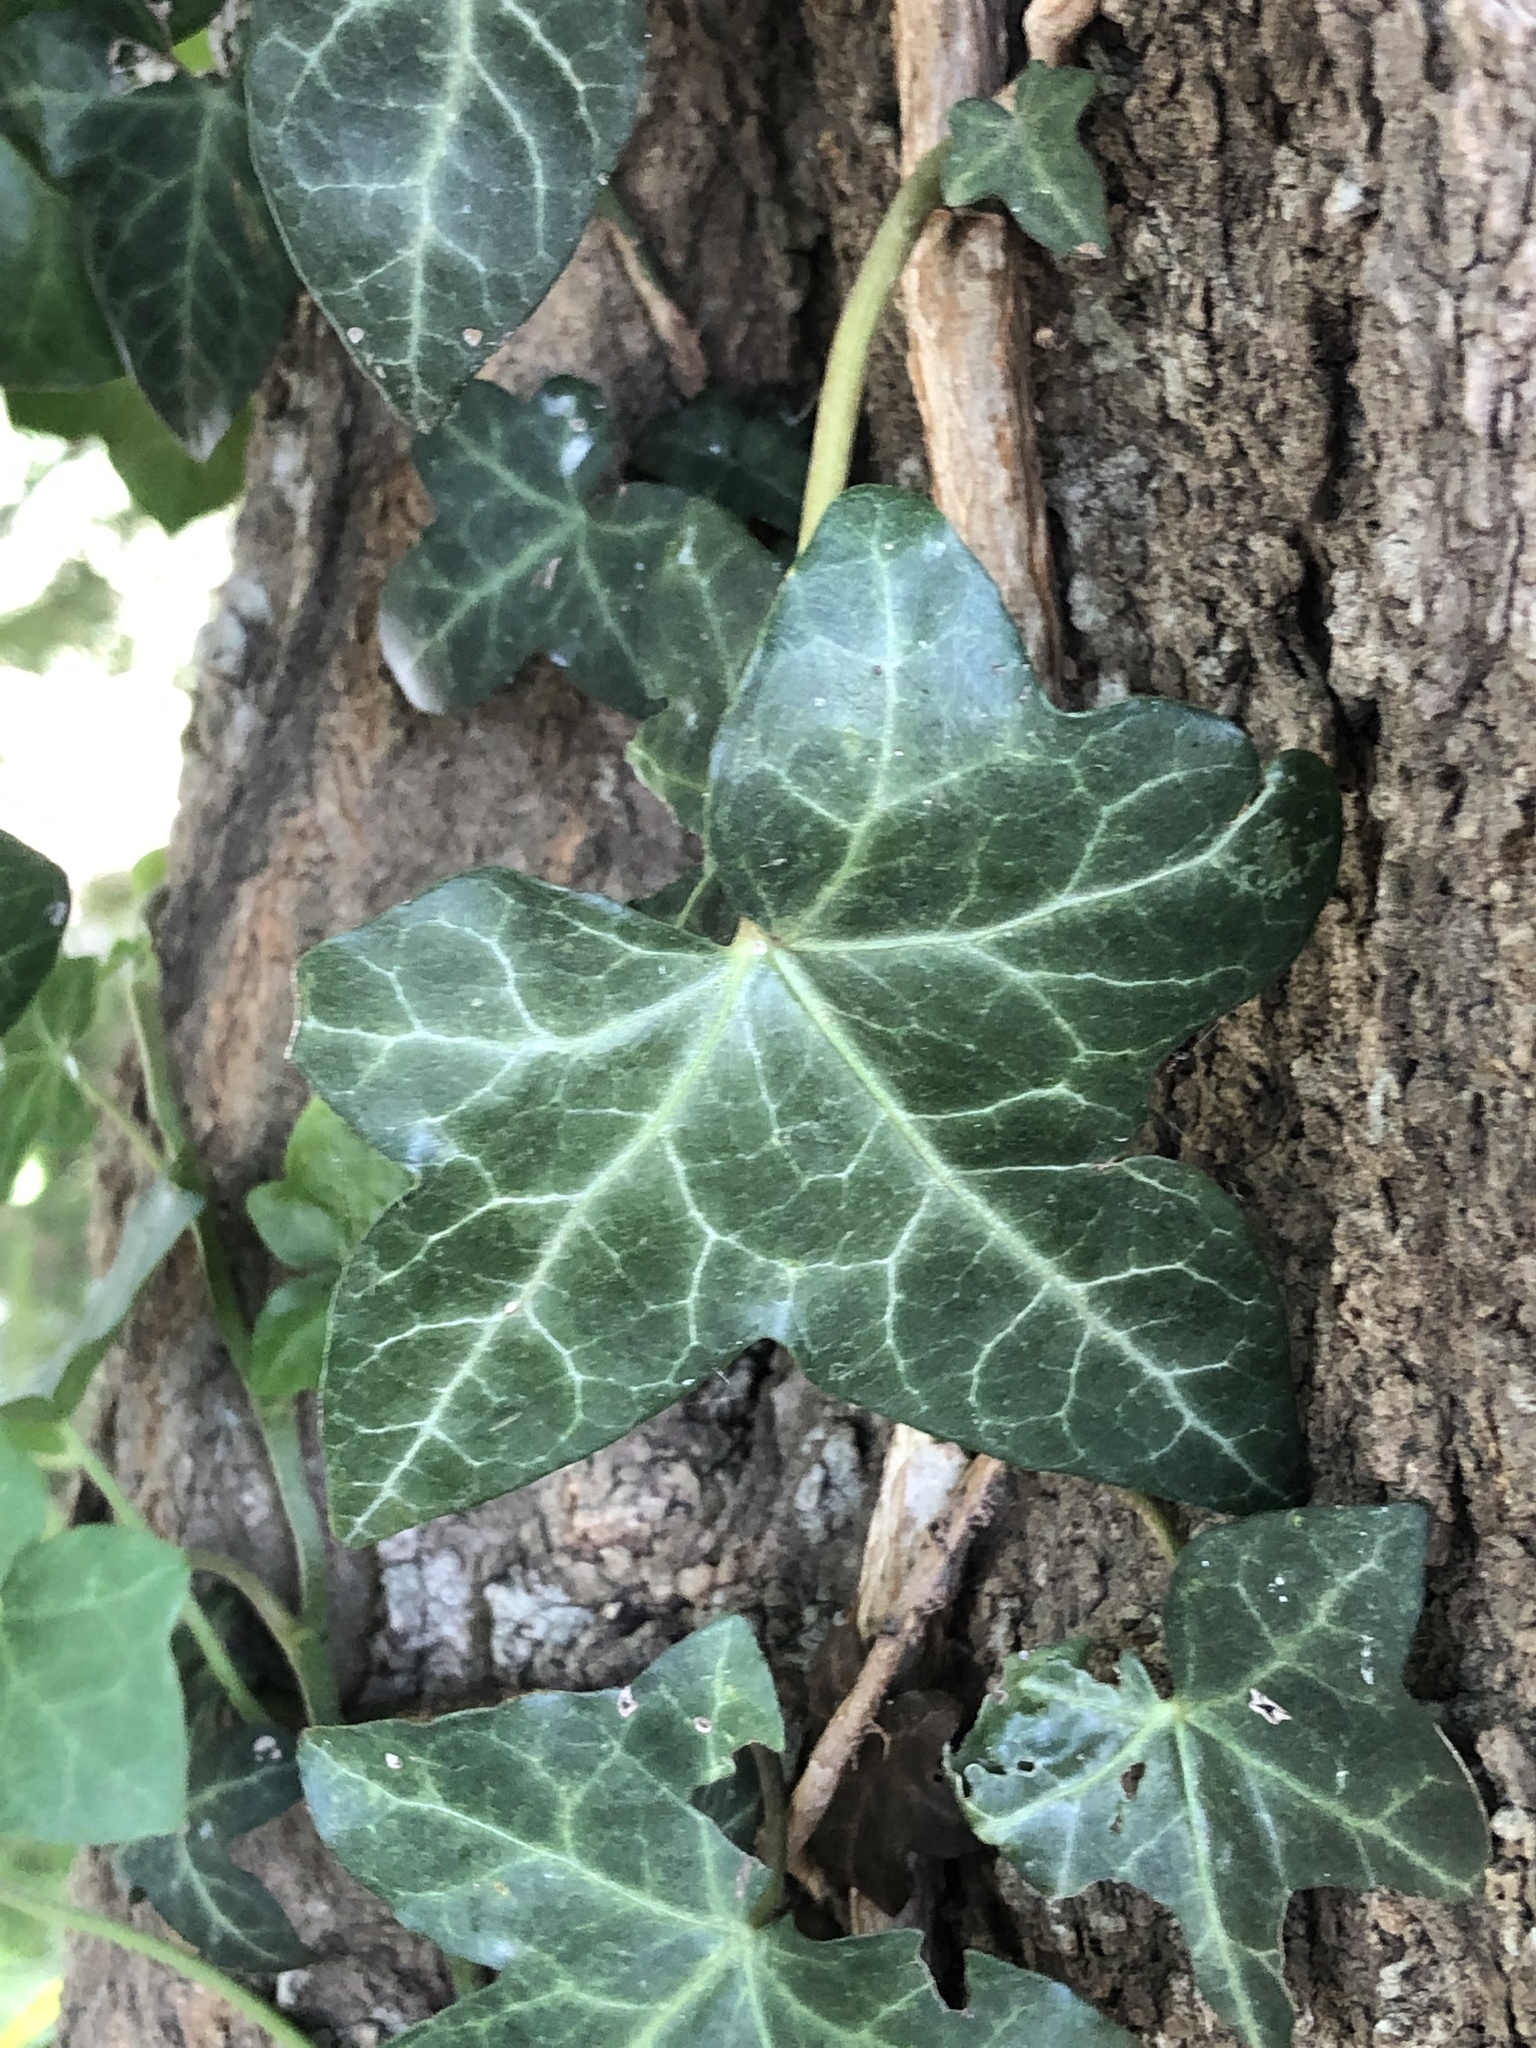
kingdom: Plantae
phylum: Tracheophyta
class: Magnoliopsida
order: Apiales
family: Araliaceae
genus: Hedera
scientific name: Hedera helix
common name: Ivy
